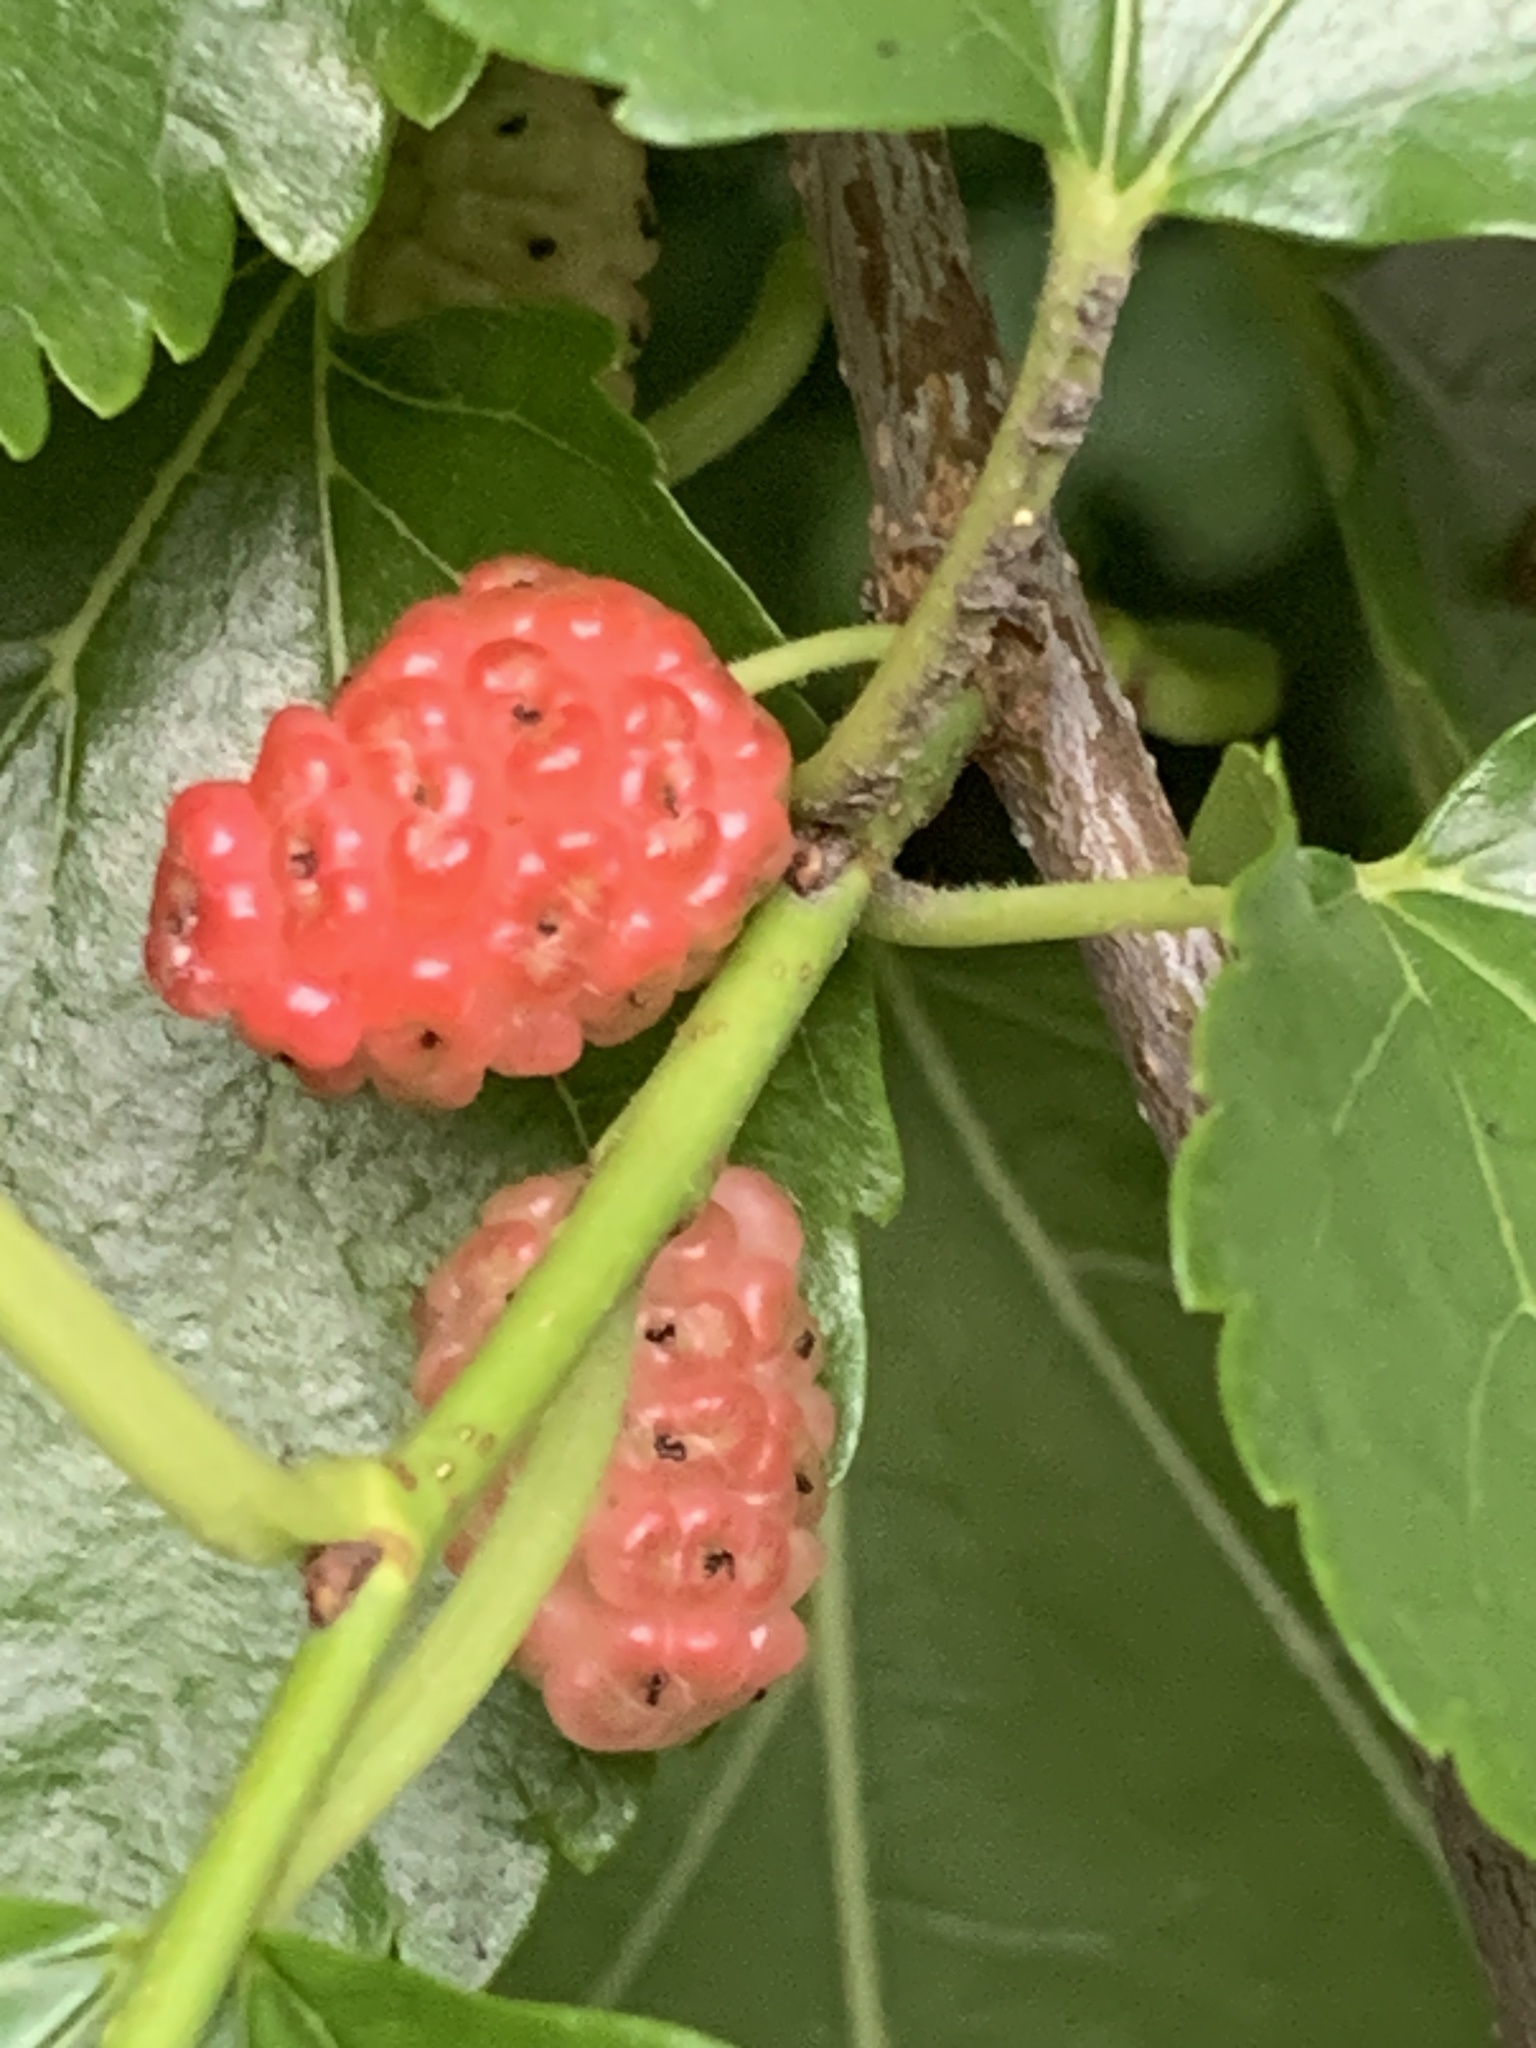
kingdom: Plantae
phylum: Tracheophyta
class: Magnoliopsida
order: Rosales
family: Moraceae
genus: Morus
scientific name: Morus alba
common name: White mulberry
